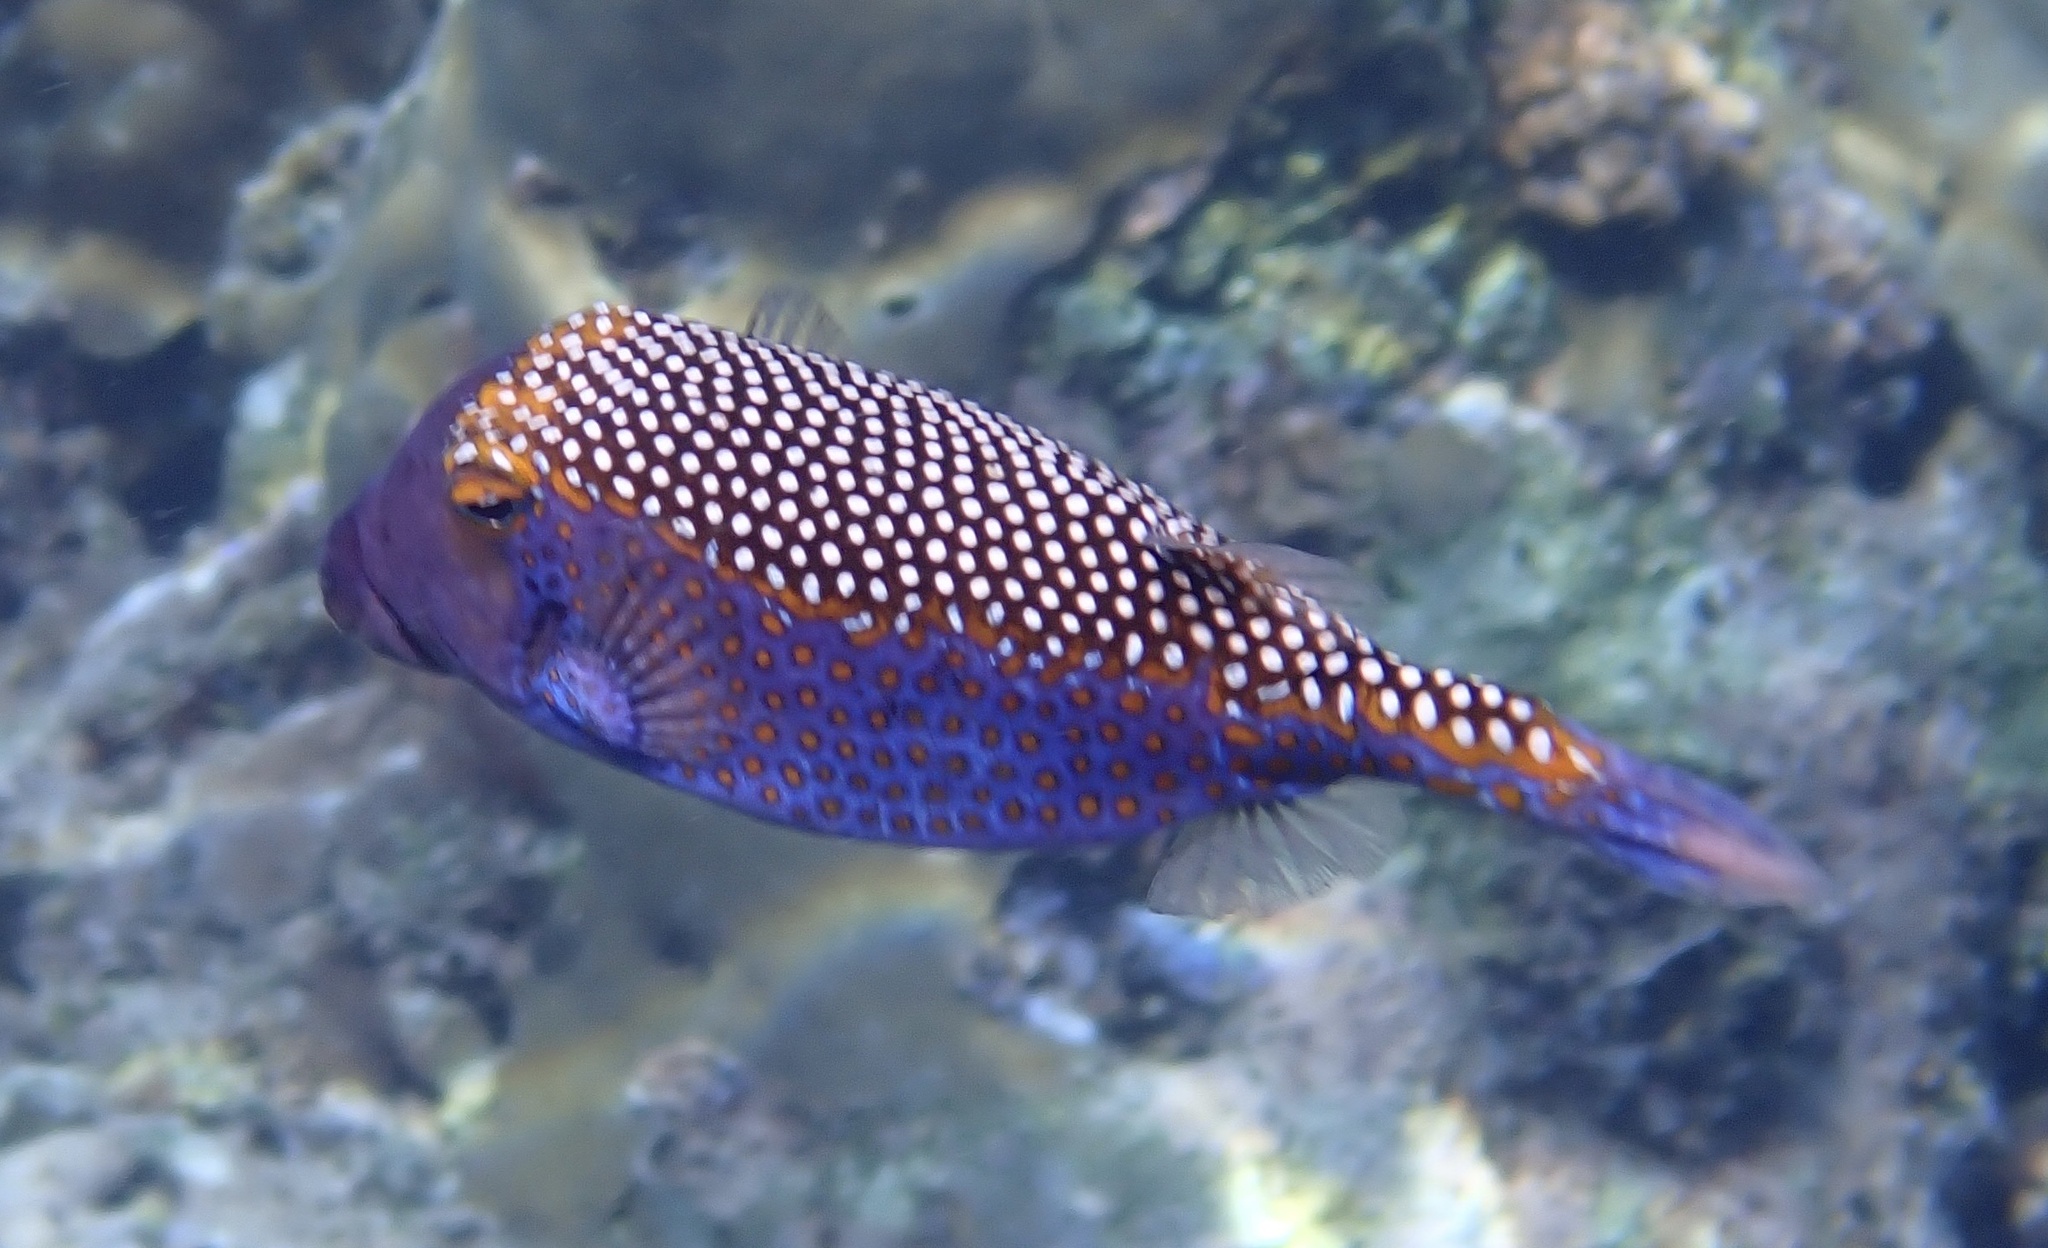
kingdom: Animalia
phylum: Chordata
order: Tetraodontiformes
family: Ostraciidae
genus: Ostracion
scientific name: Ostracion meleagris
